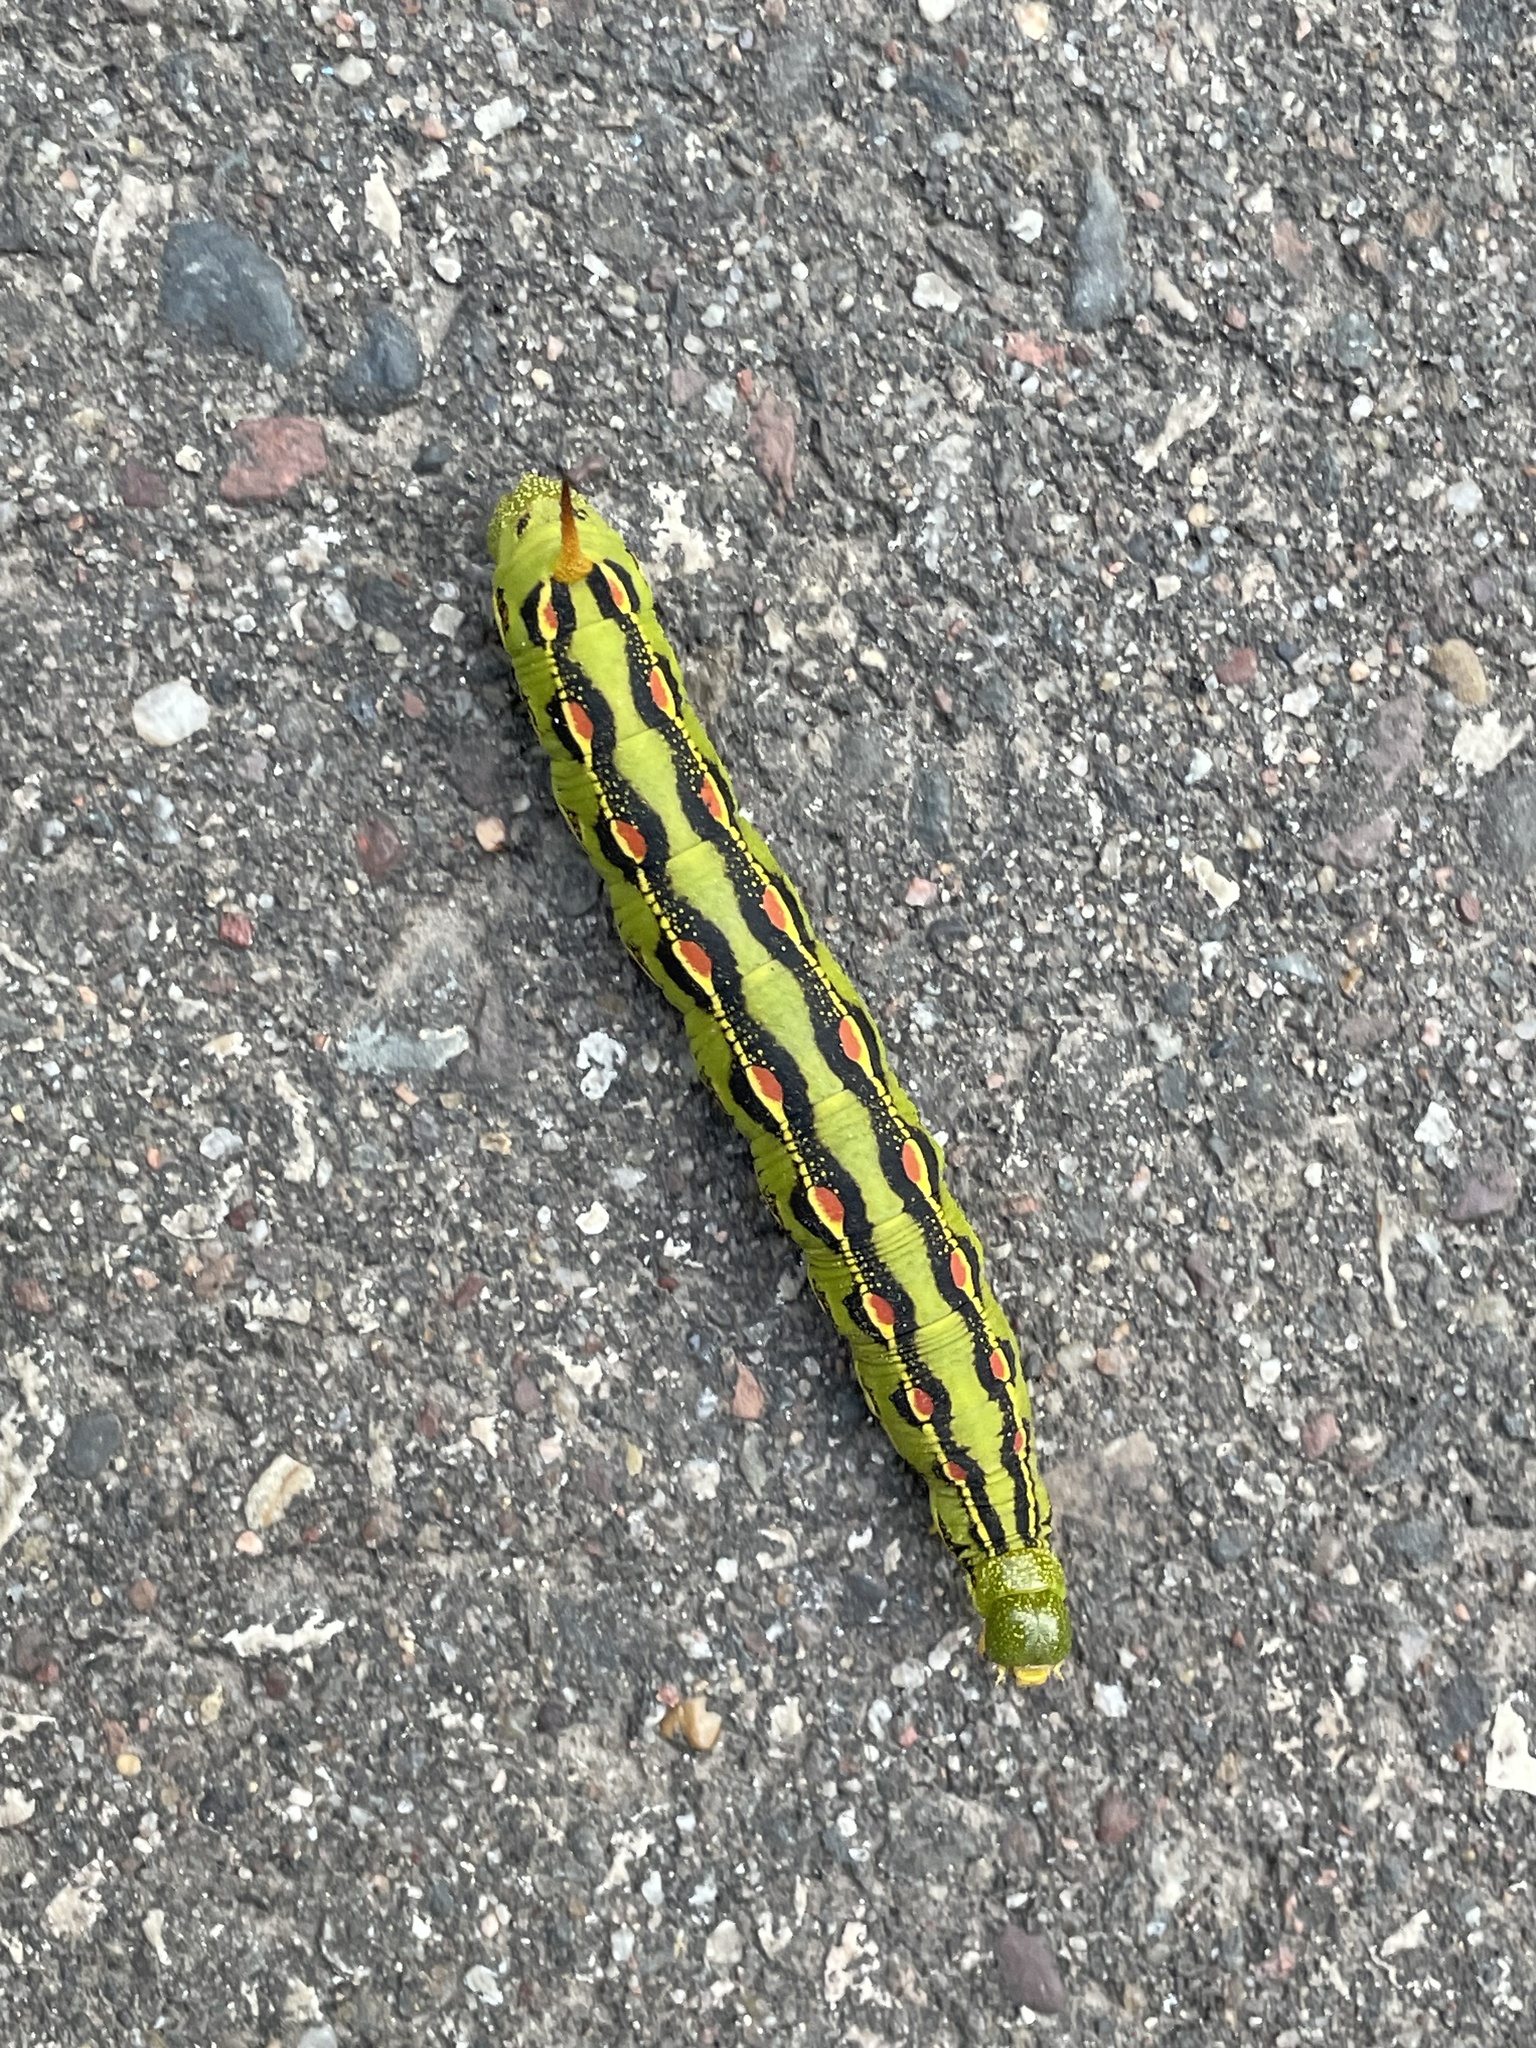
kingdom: Animalia
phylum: Arthropoda
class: Insecta
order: Lepidoptera
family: Sphingidae
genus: Hyles
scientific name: Hyles lineata
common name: White-lined sphinx
